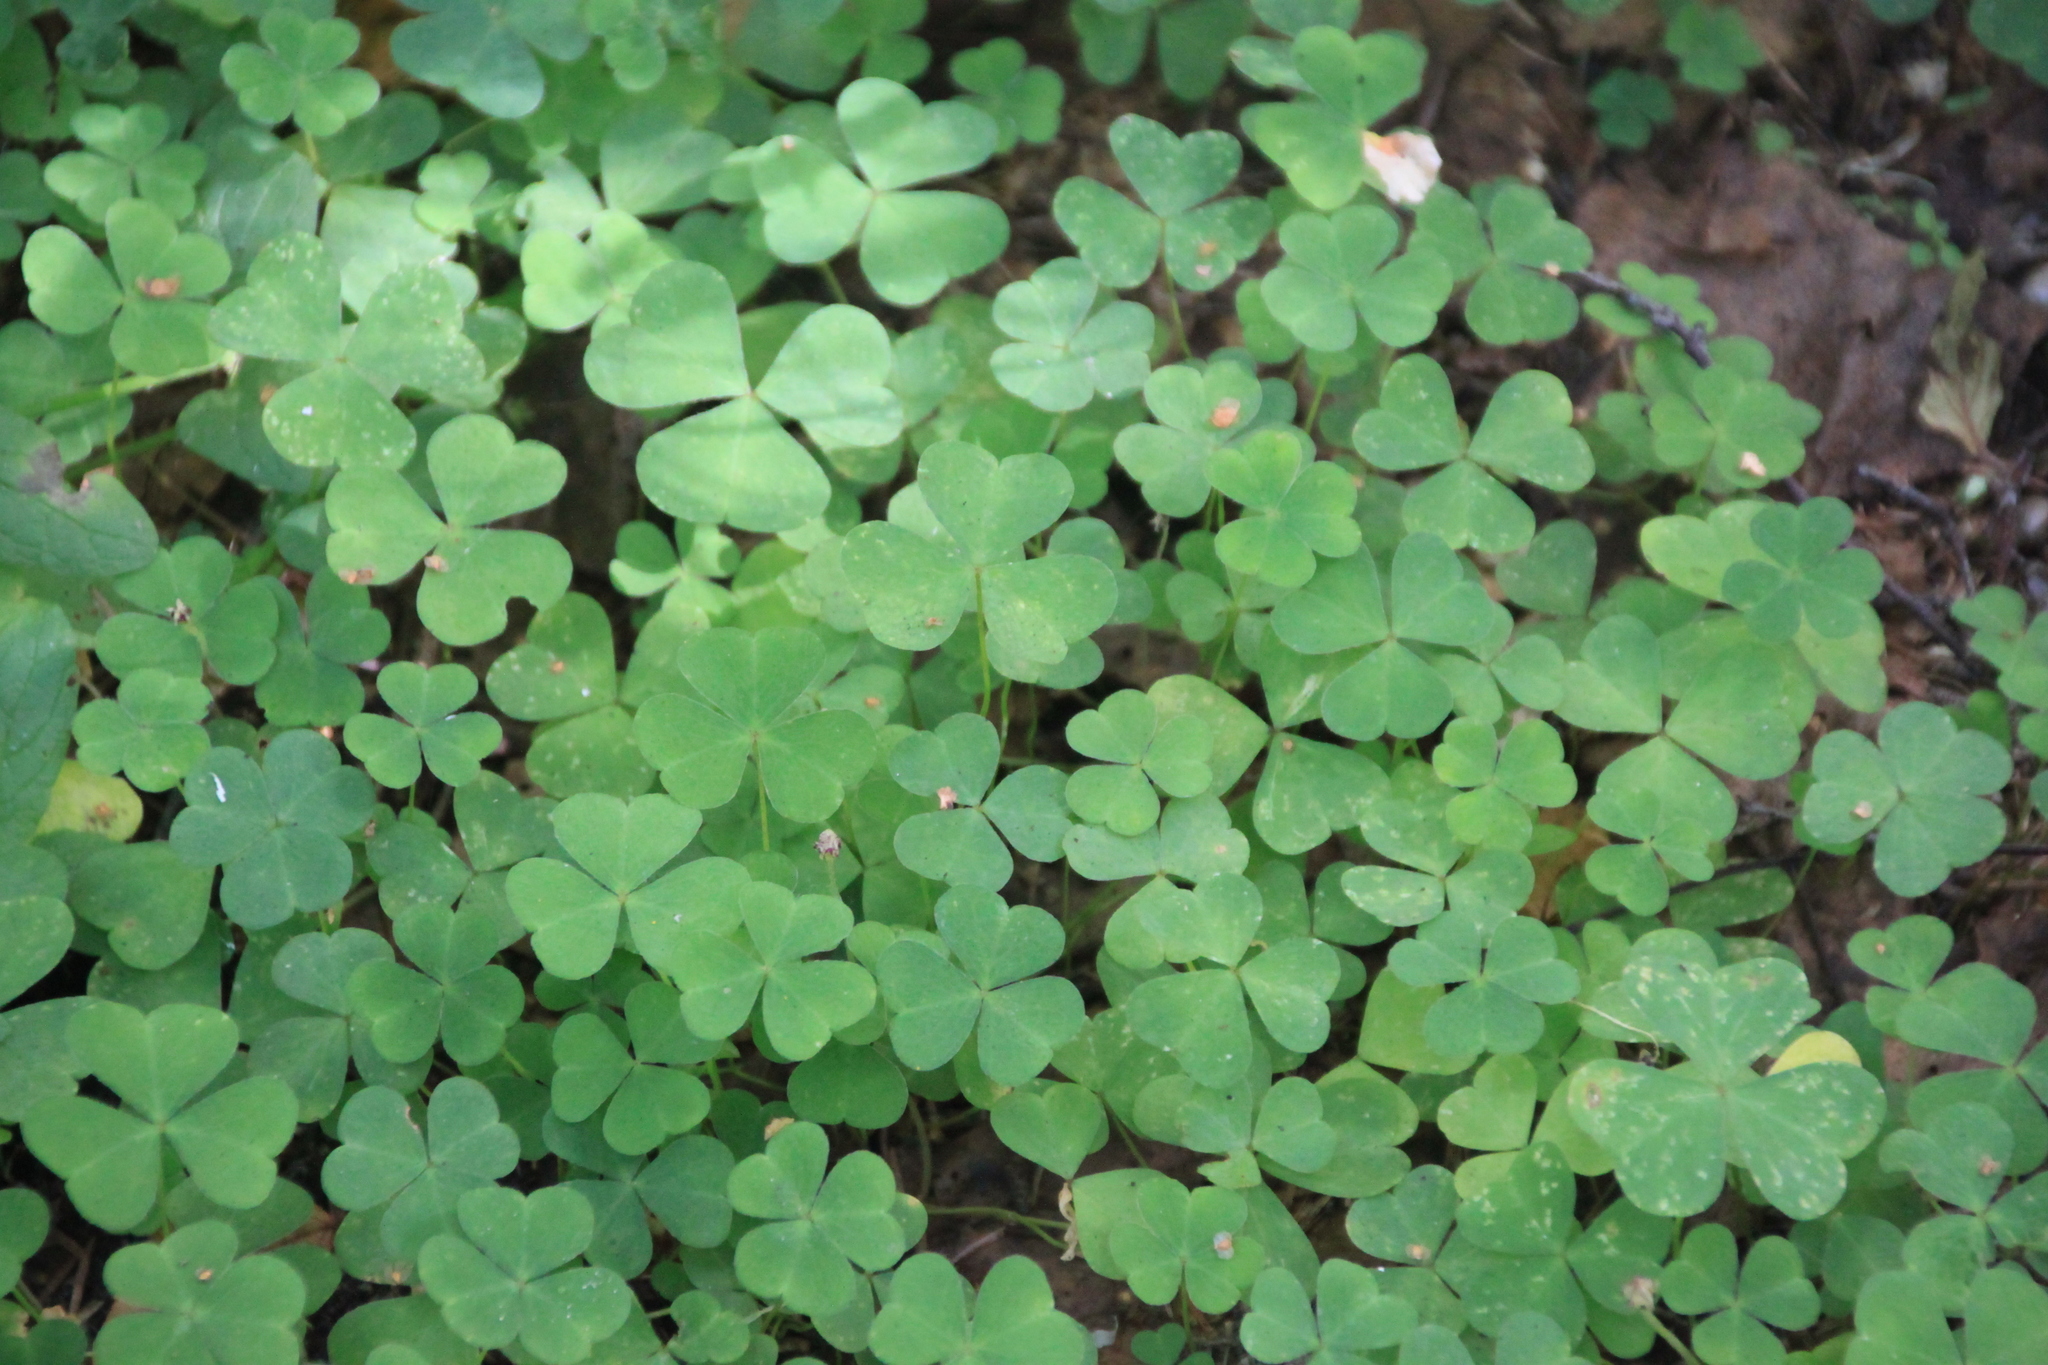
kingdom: Plantae
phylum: Tracheophyta
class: Magnoliopsida
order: Oxalidales
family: Oxalidaceae
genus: Oxalis
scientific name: Oxalis acetosella
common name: Wood-sorrel
